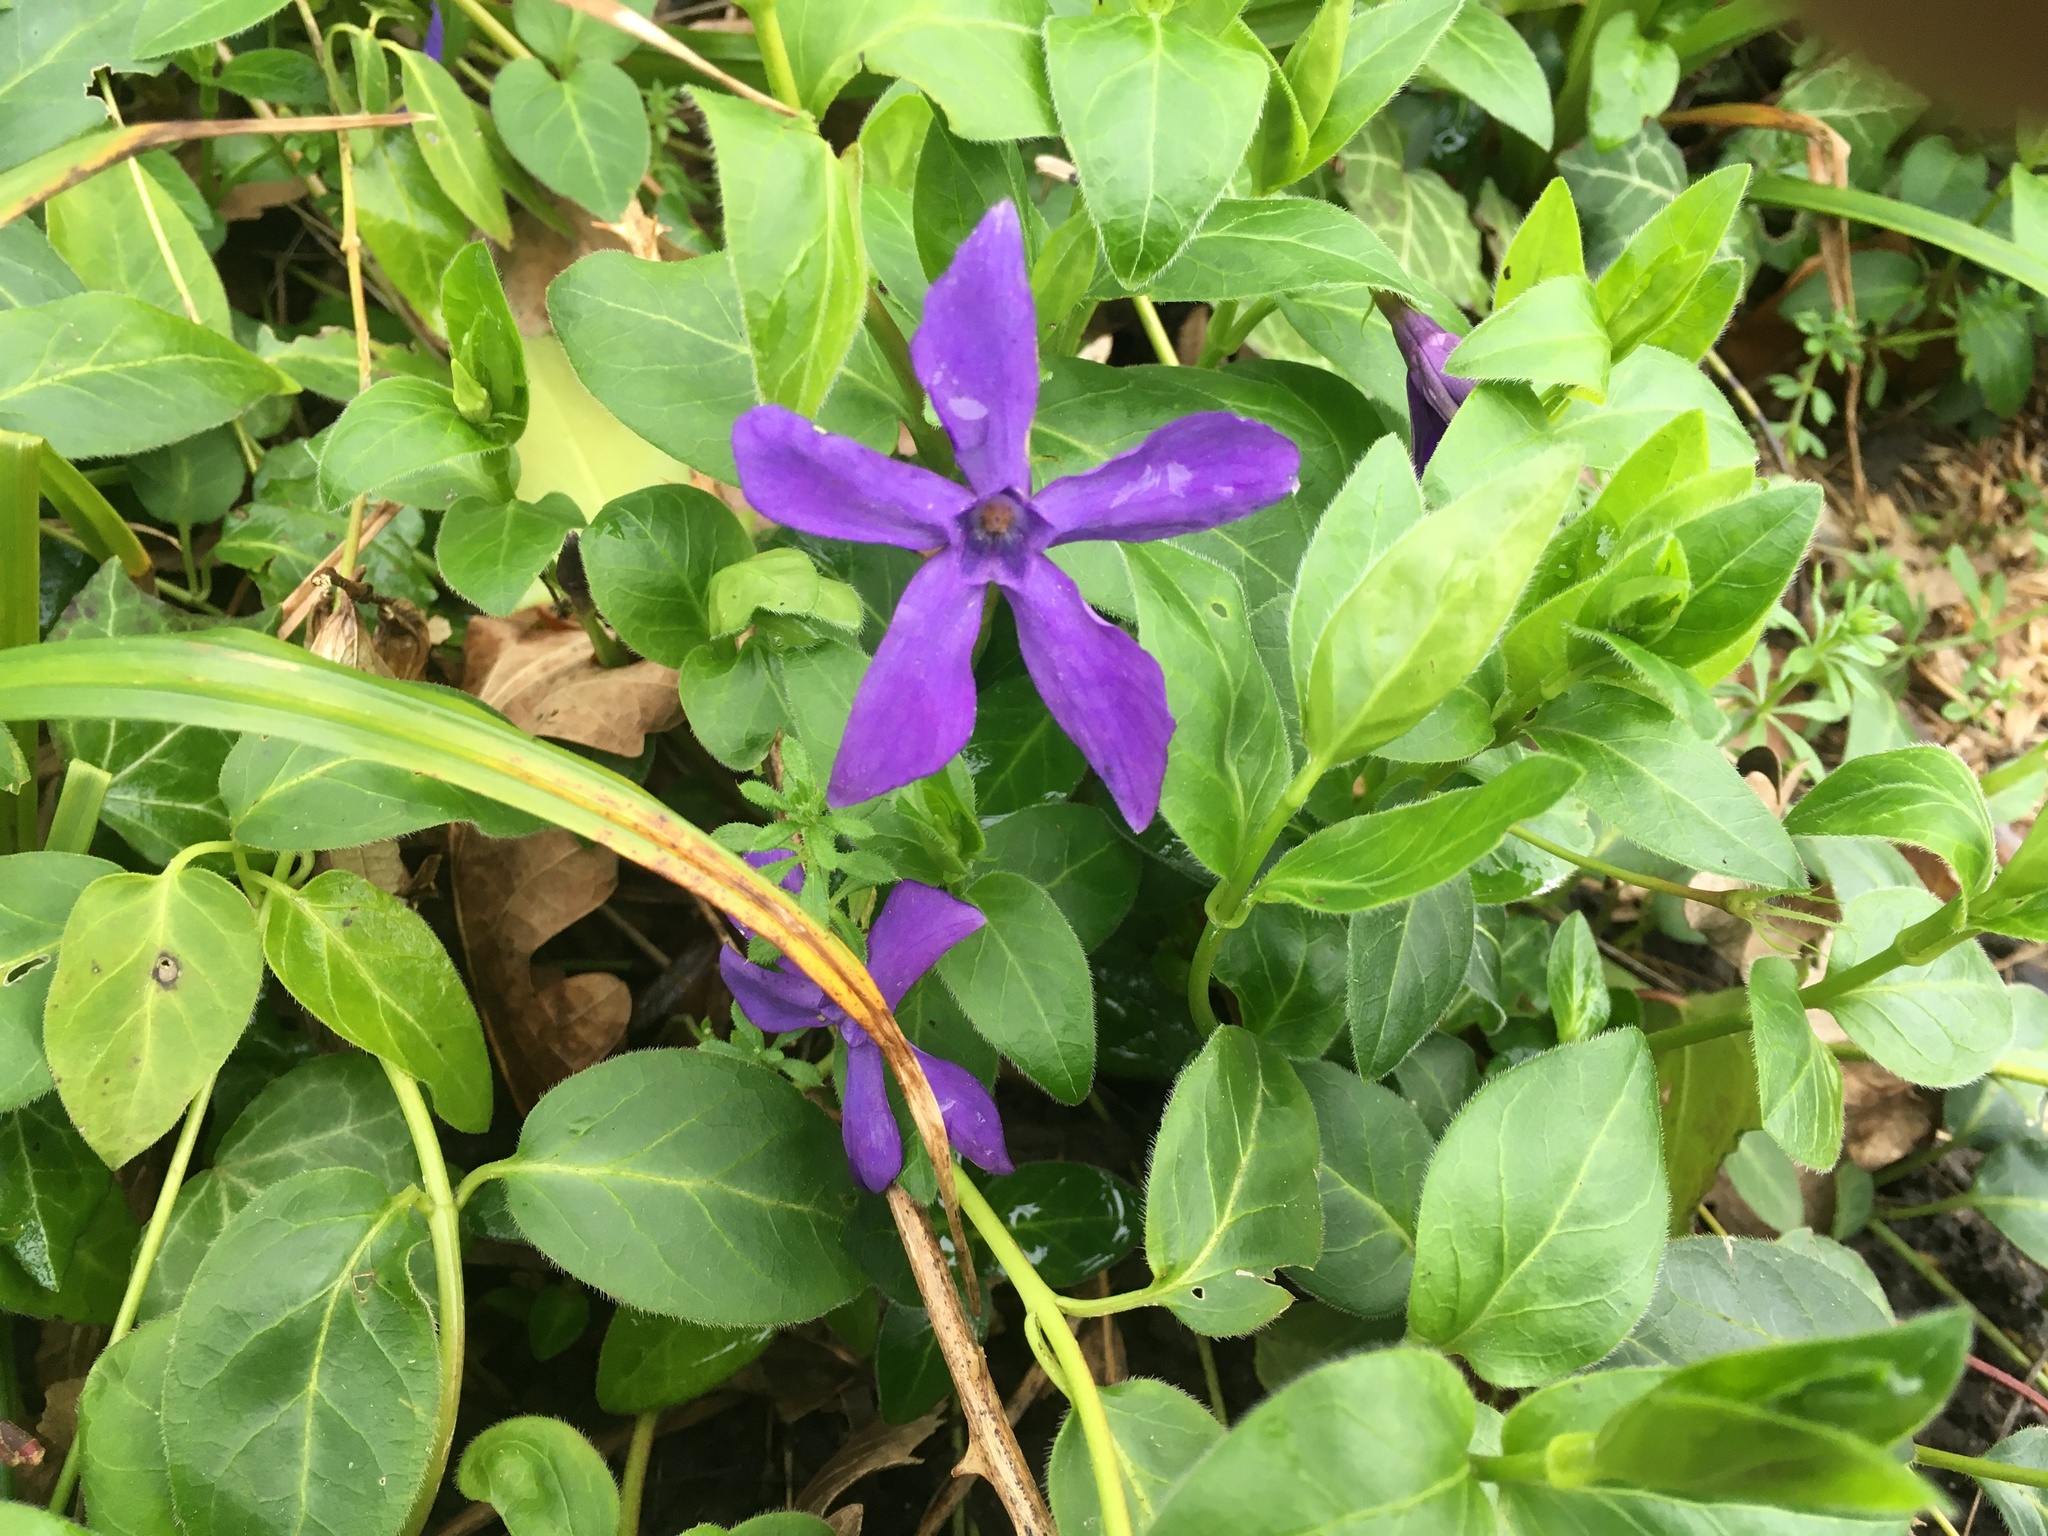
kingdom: Plantae
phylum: Tracheophyta
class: Magnoliopsida
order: Gentianales
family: Apocynaceae
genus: Vinca
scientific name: Vinca major
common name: Greater periwinkle
